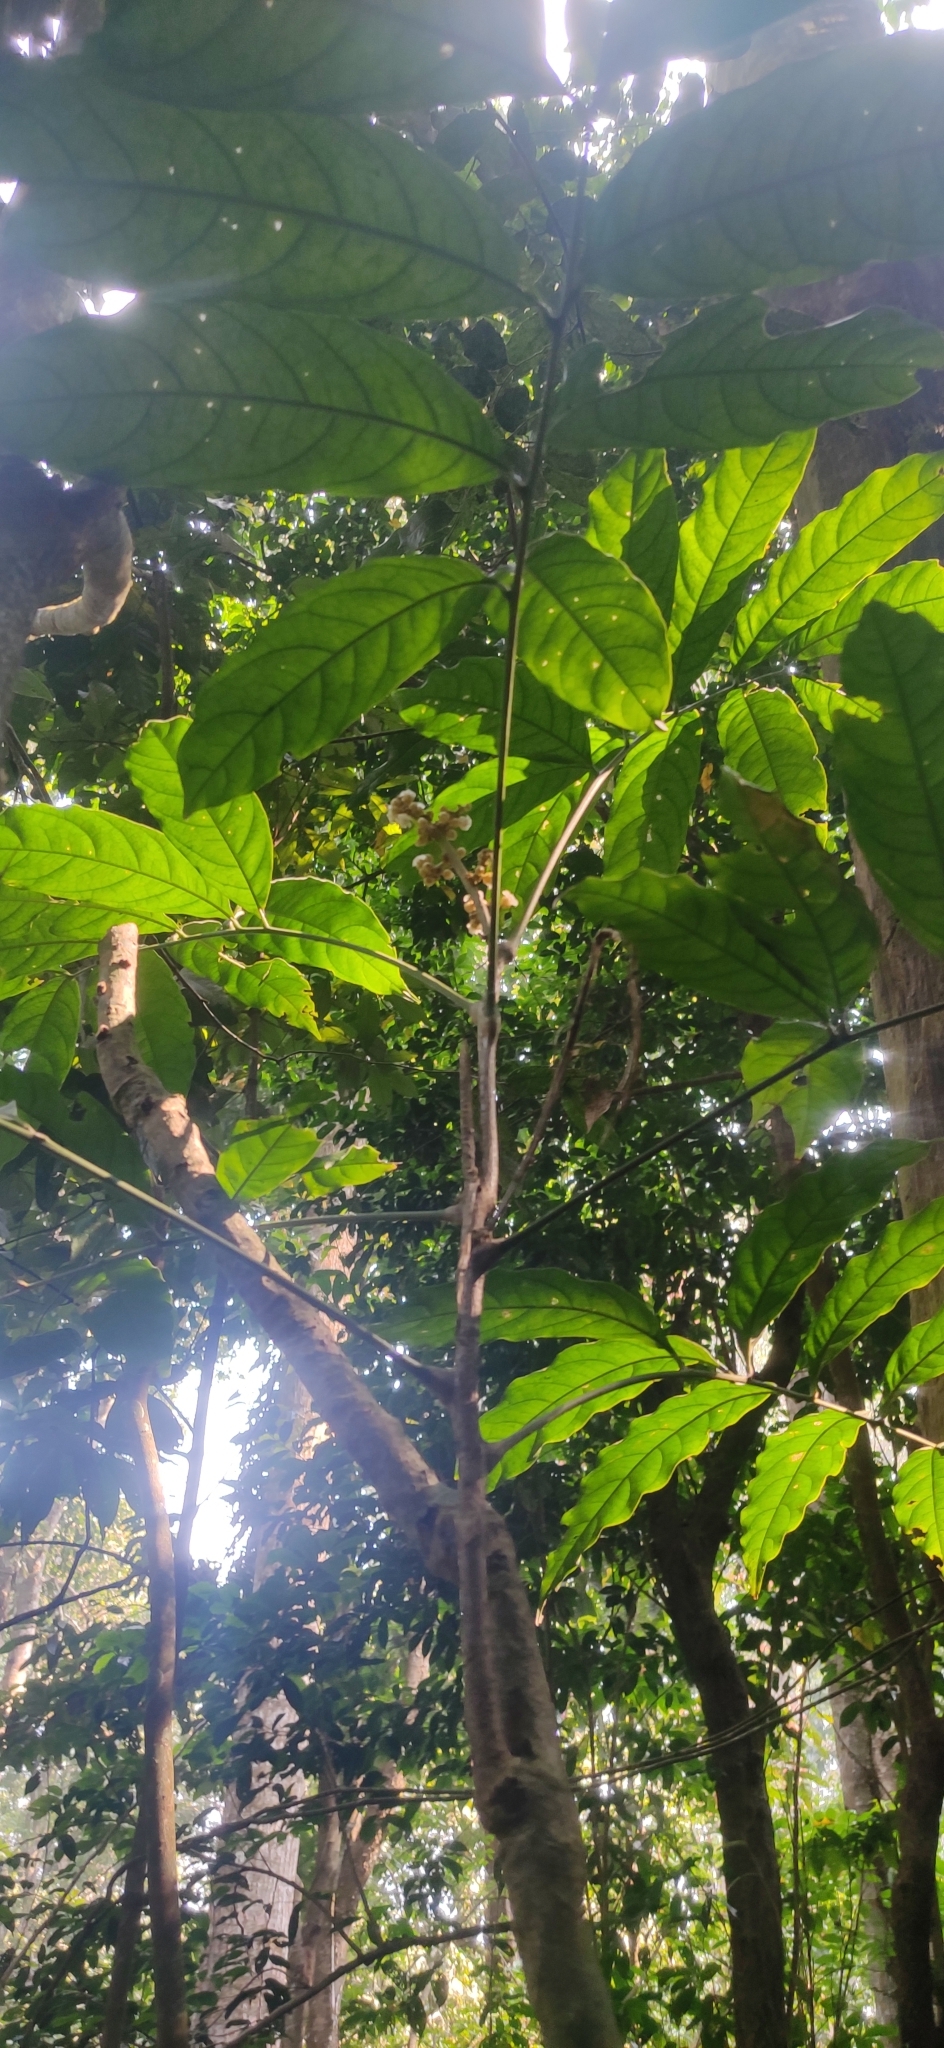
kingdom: Plantae
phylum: Tracheophyta
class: Magnoliopsida
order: Sapindales
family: Sapindaceae
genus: Lepisanthes
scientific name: Lepisanthes erecta
